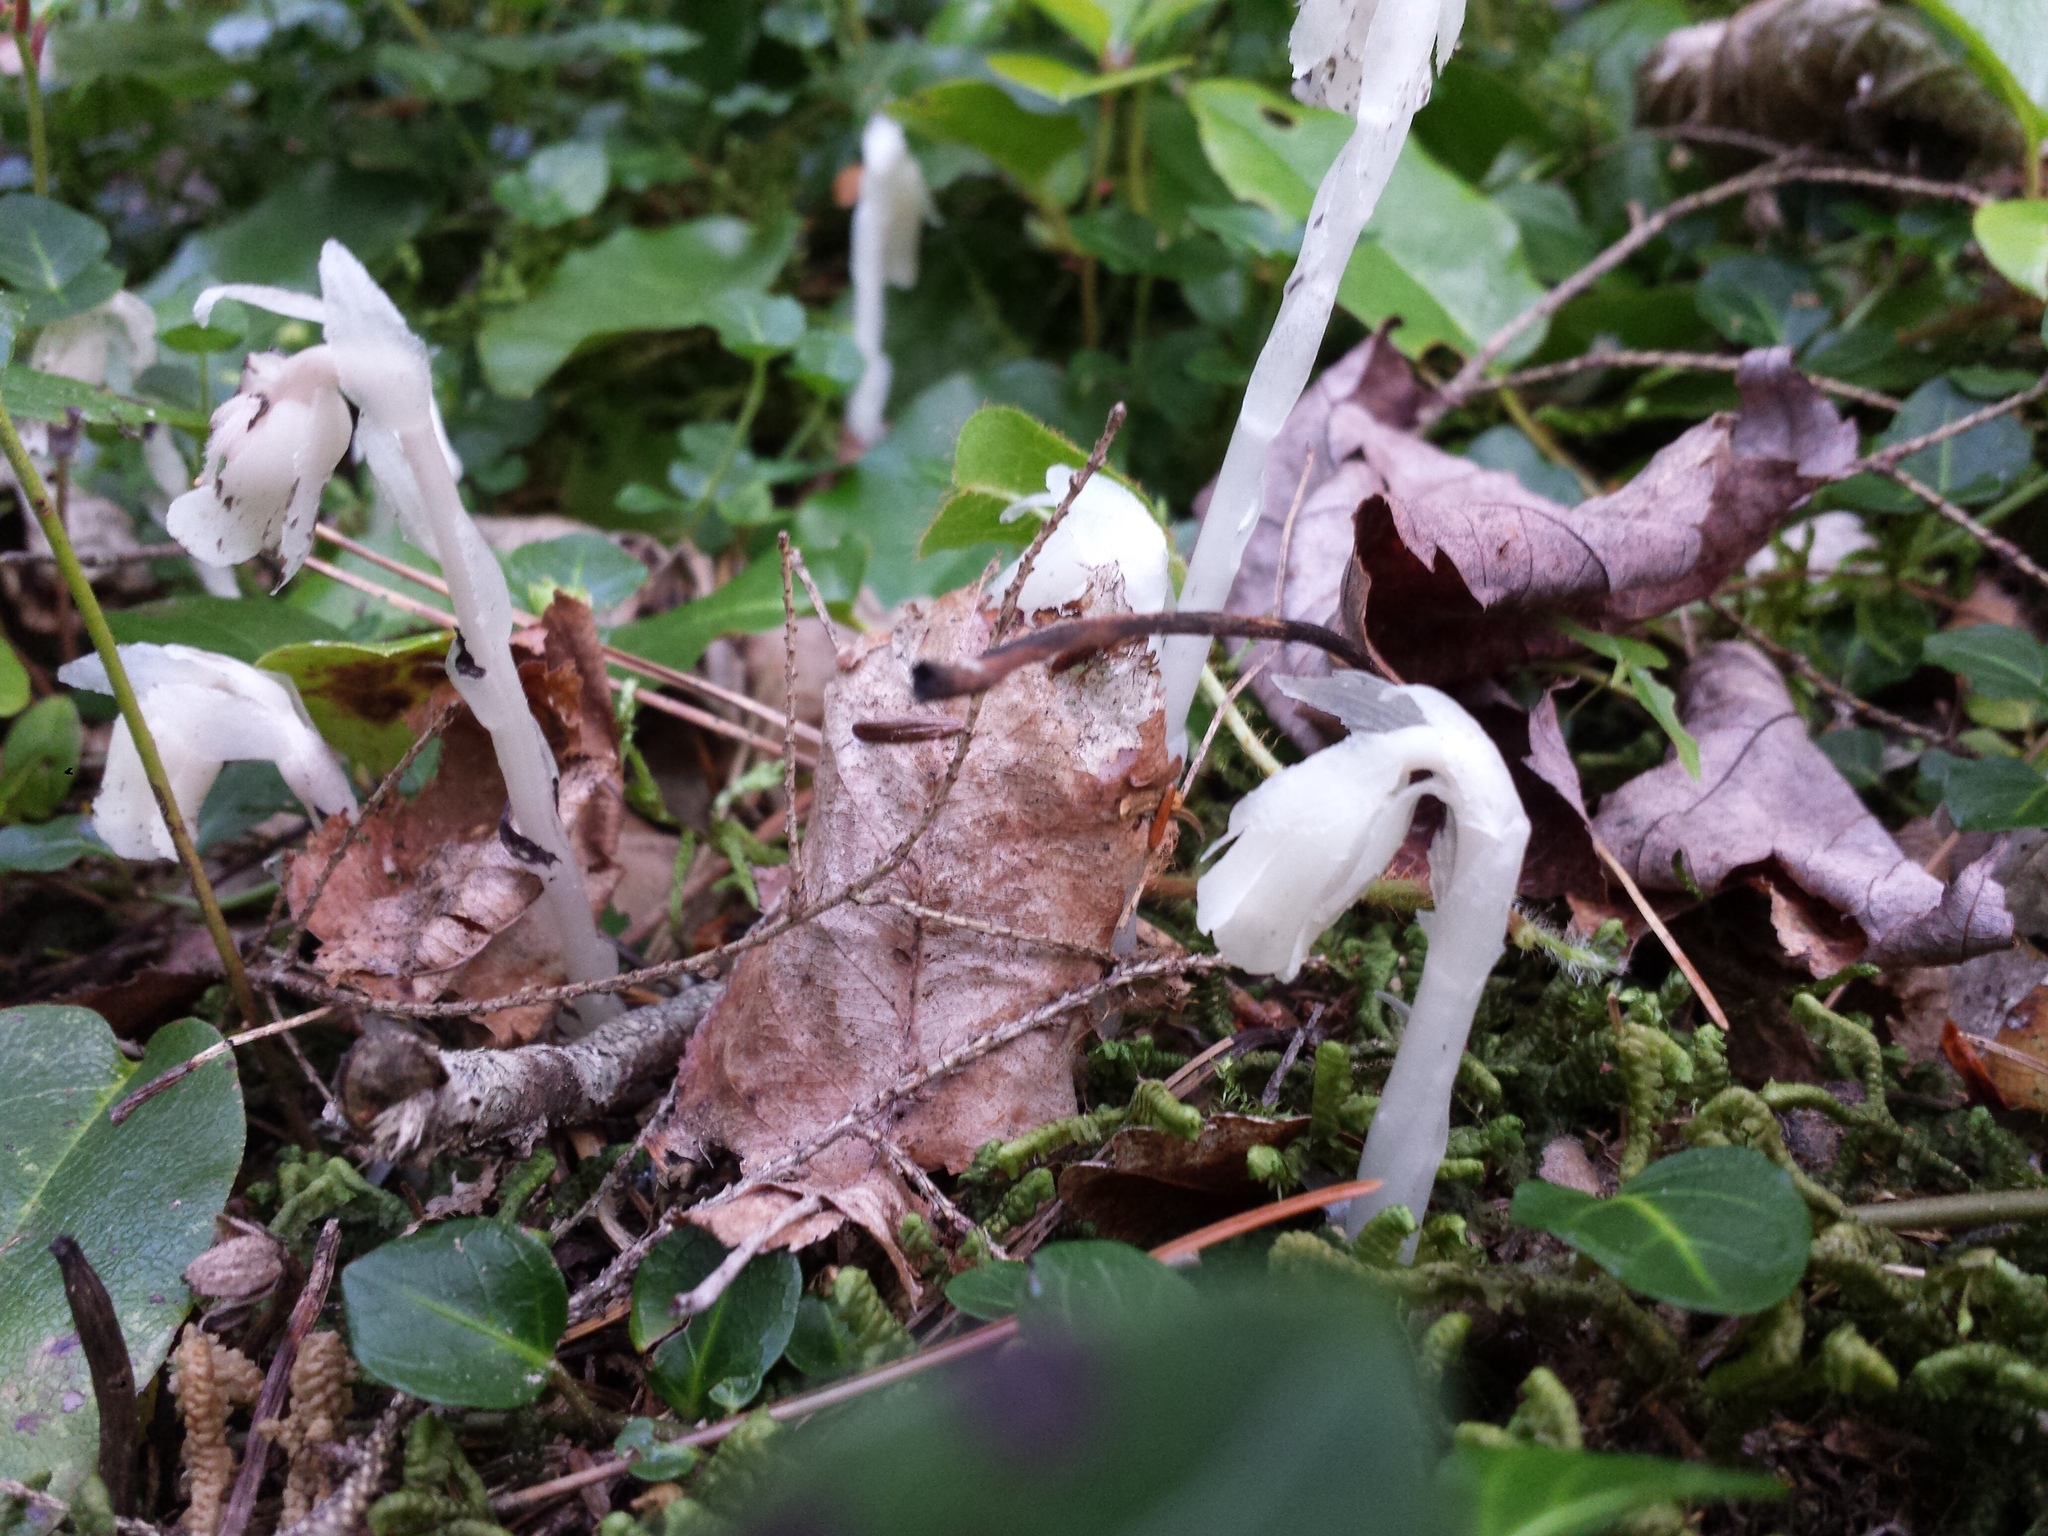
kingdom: Plantae
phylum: Tracheophyta
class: Magnoliopsida
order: Ericales
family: Ericaceae
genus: Monotropa
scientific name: Monotropa uniflora
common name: Convulsion root
